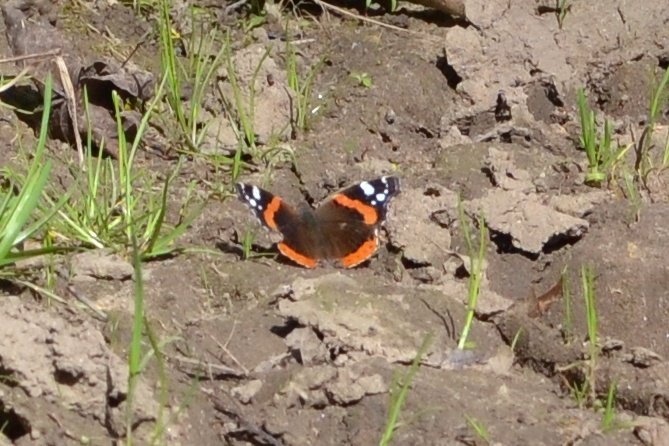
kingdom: Animalia
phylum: Arthropoda
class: Insecta
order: Lepidoptera
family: Nymphalidae
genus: Vanessa
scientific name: Vanessa atalanta
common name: Red admiral
